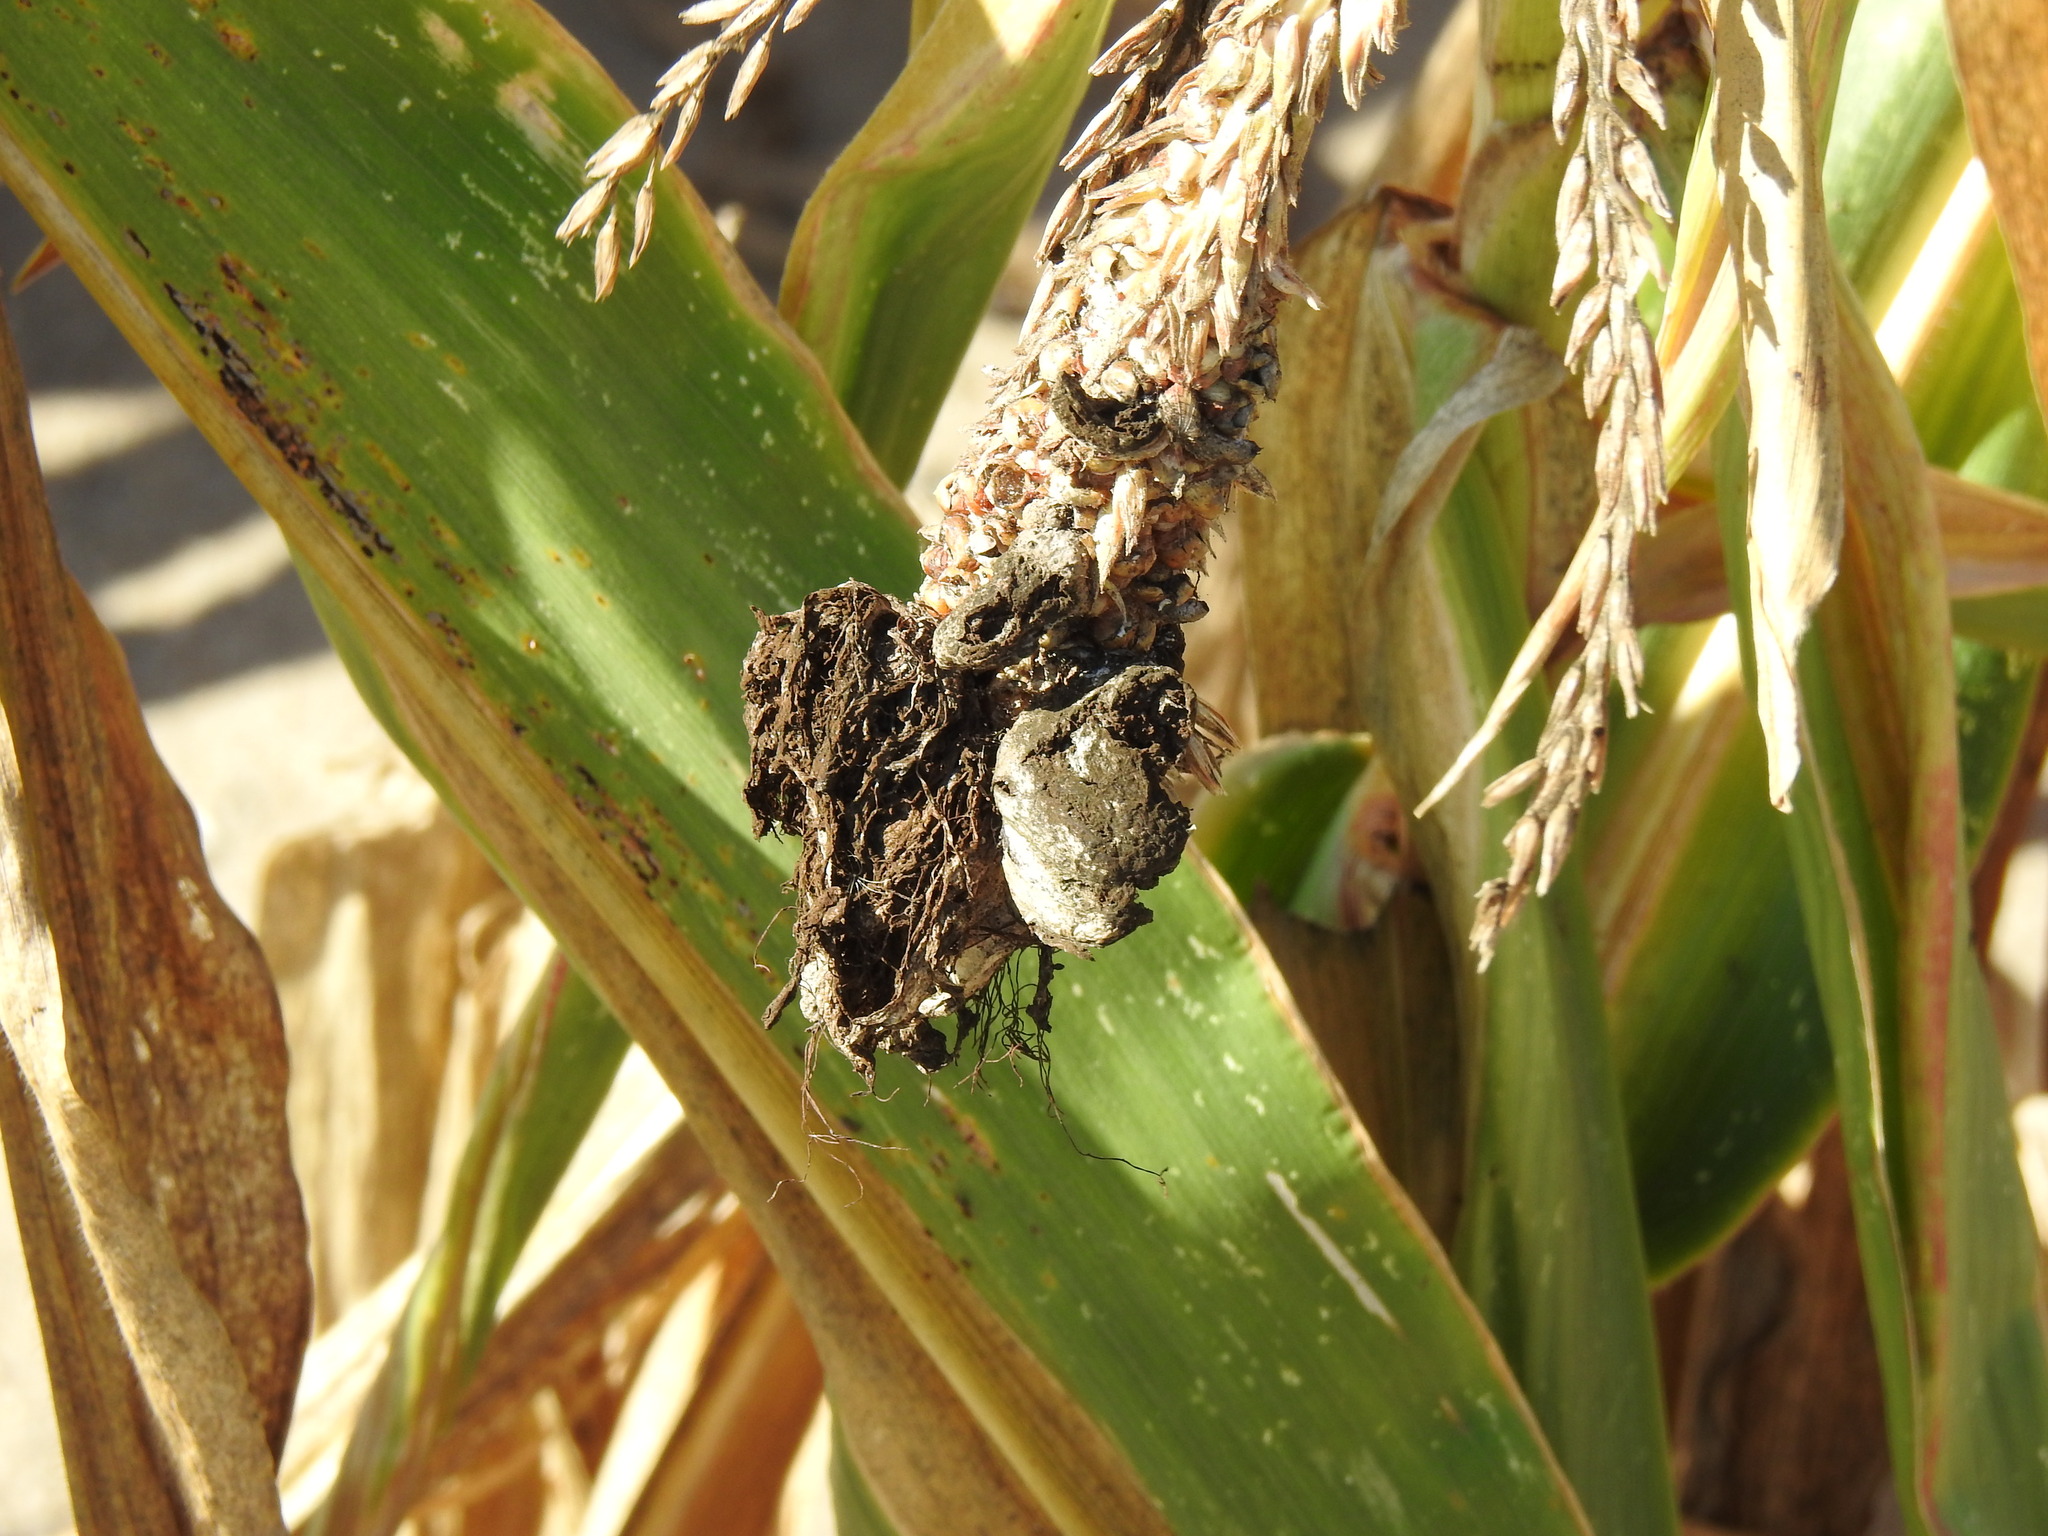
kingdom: Fungi
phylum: Basidiomycota
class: Ustilaginomycetes
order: Ustilaginales
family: Ustilaginaceae
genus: Mycosarcoma
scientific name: Mycosarcoma maydis
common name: Corn smut
